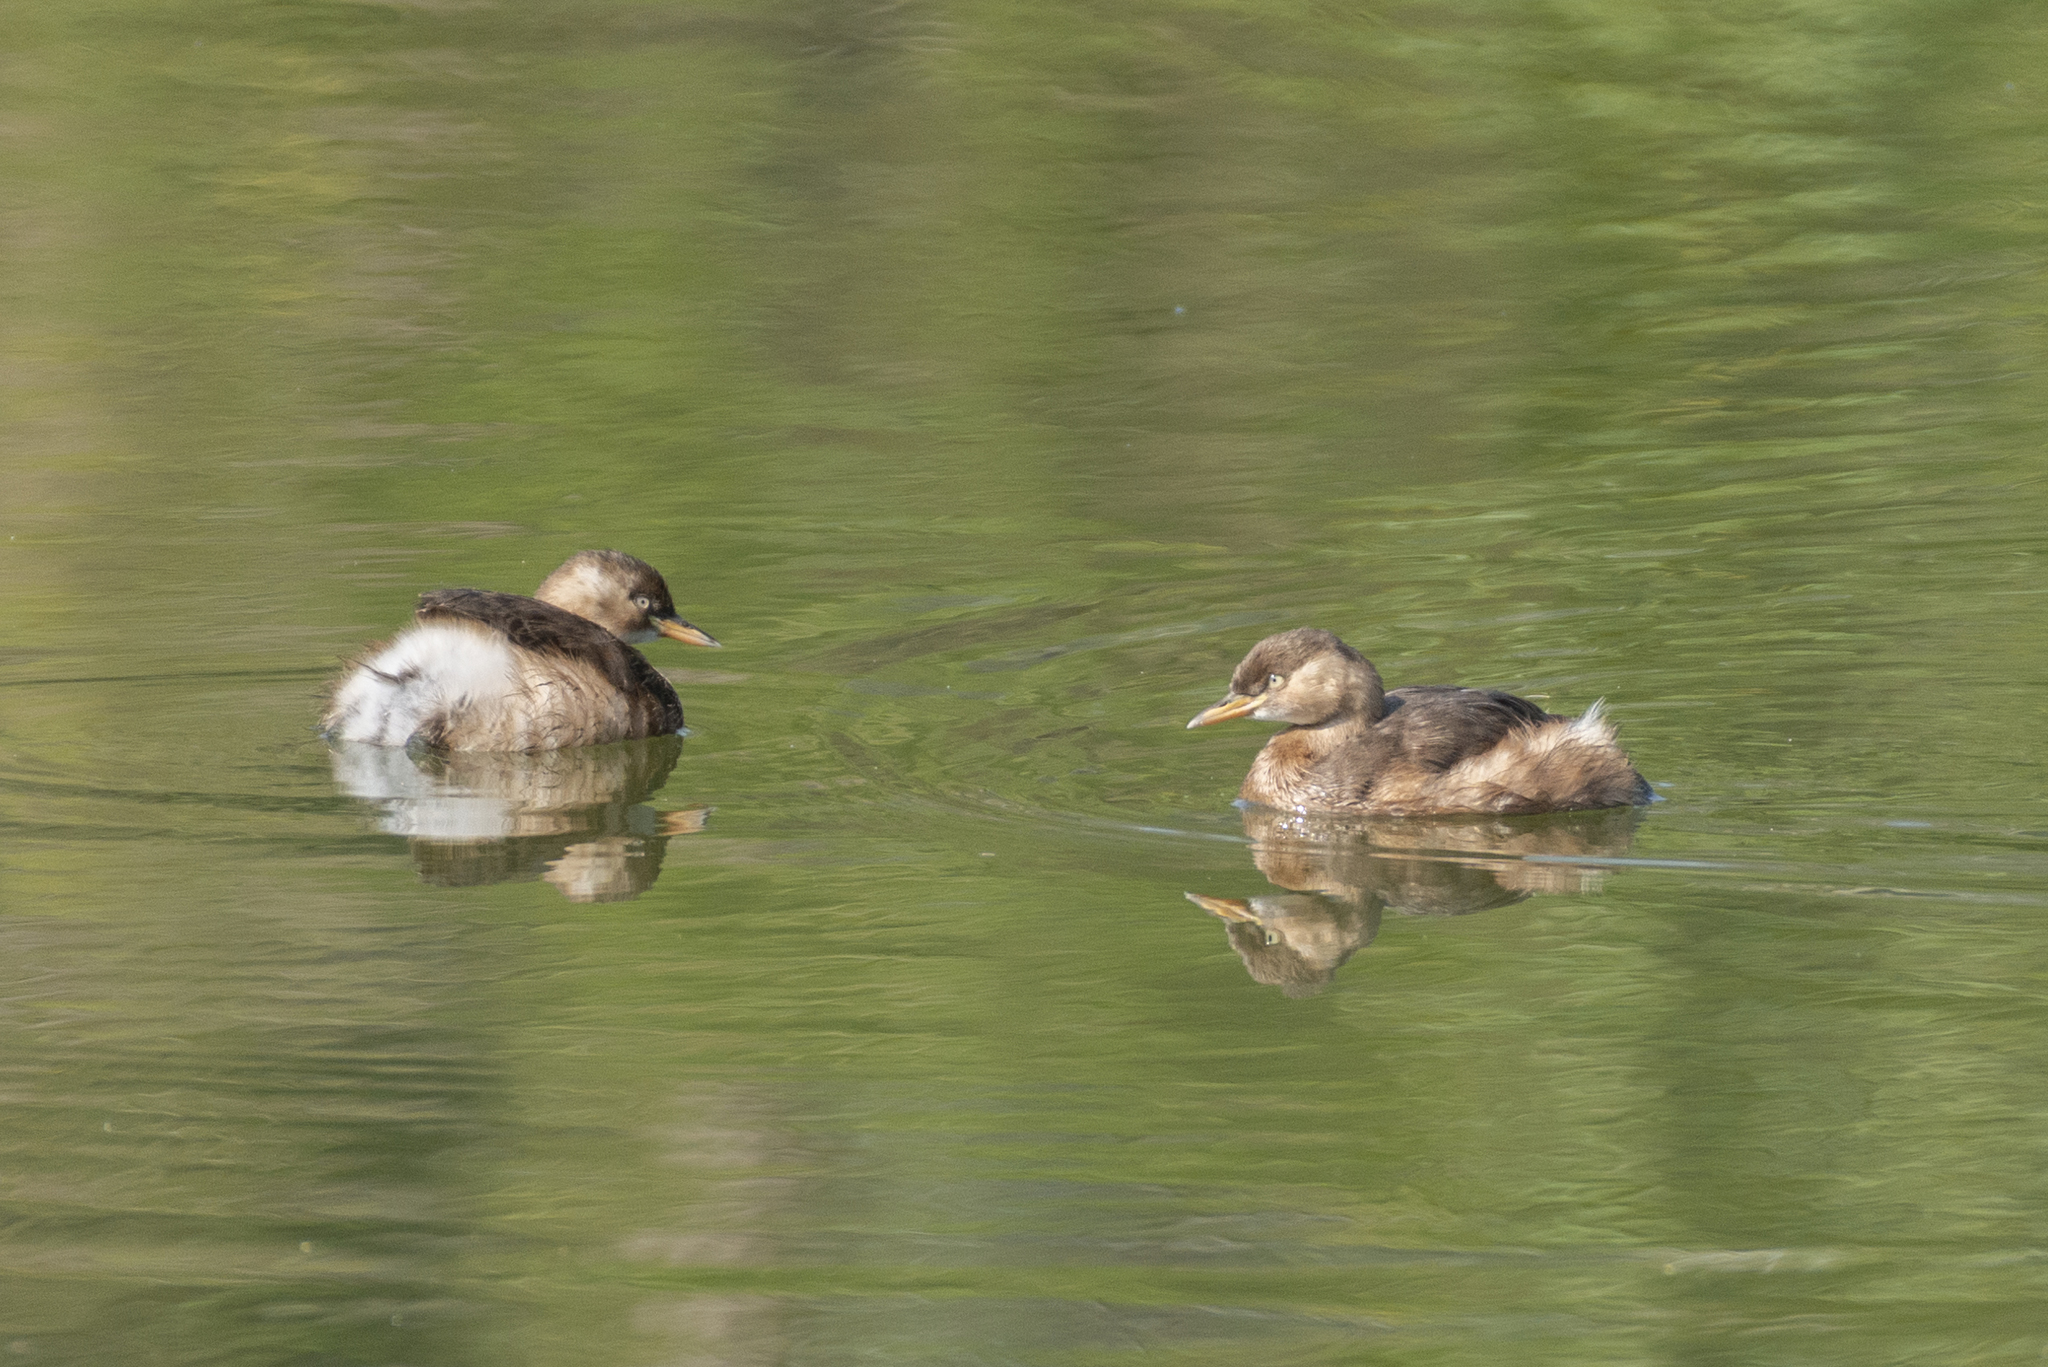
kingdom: Animalia
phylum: Chordata
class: Aves
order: Podicipediformes
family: Podicipedidae
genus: Tachybaptus
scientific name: Tachybaptus ruficollis
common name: Little grebe
